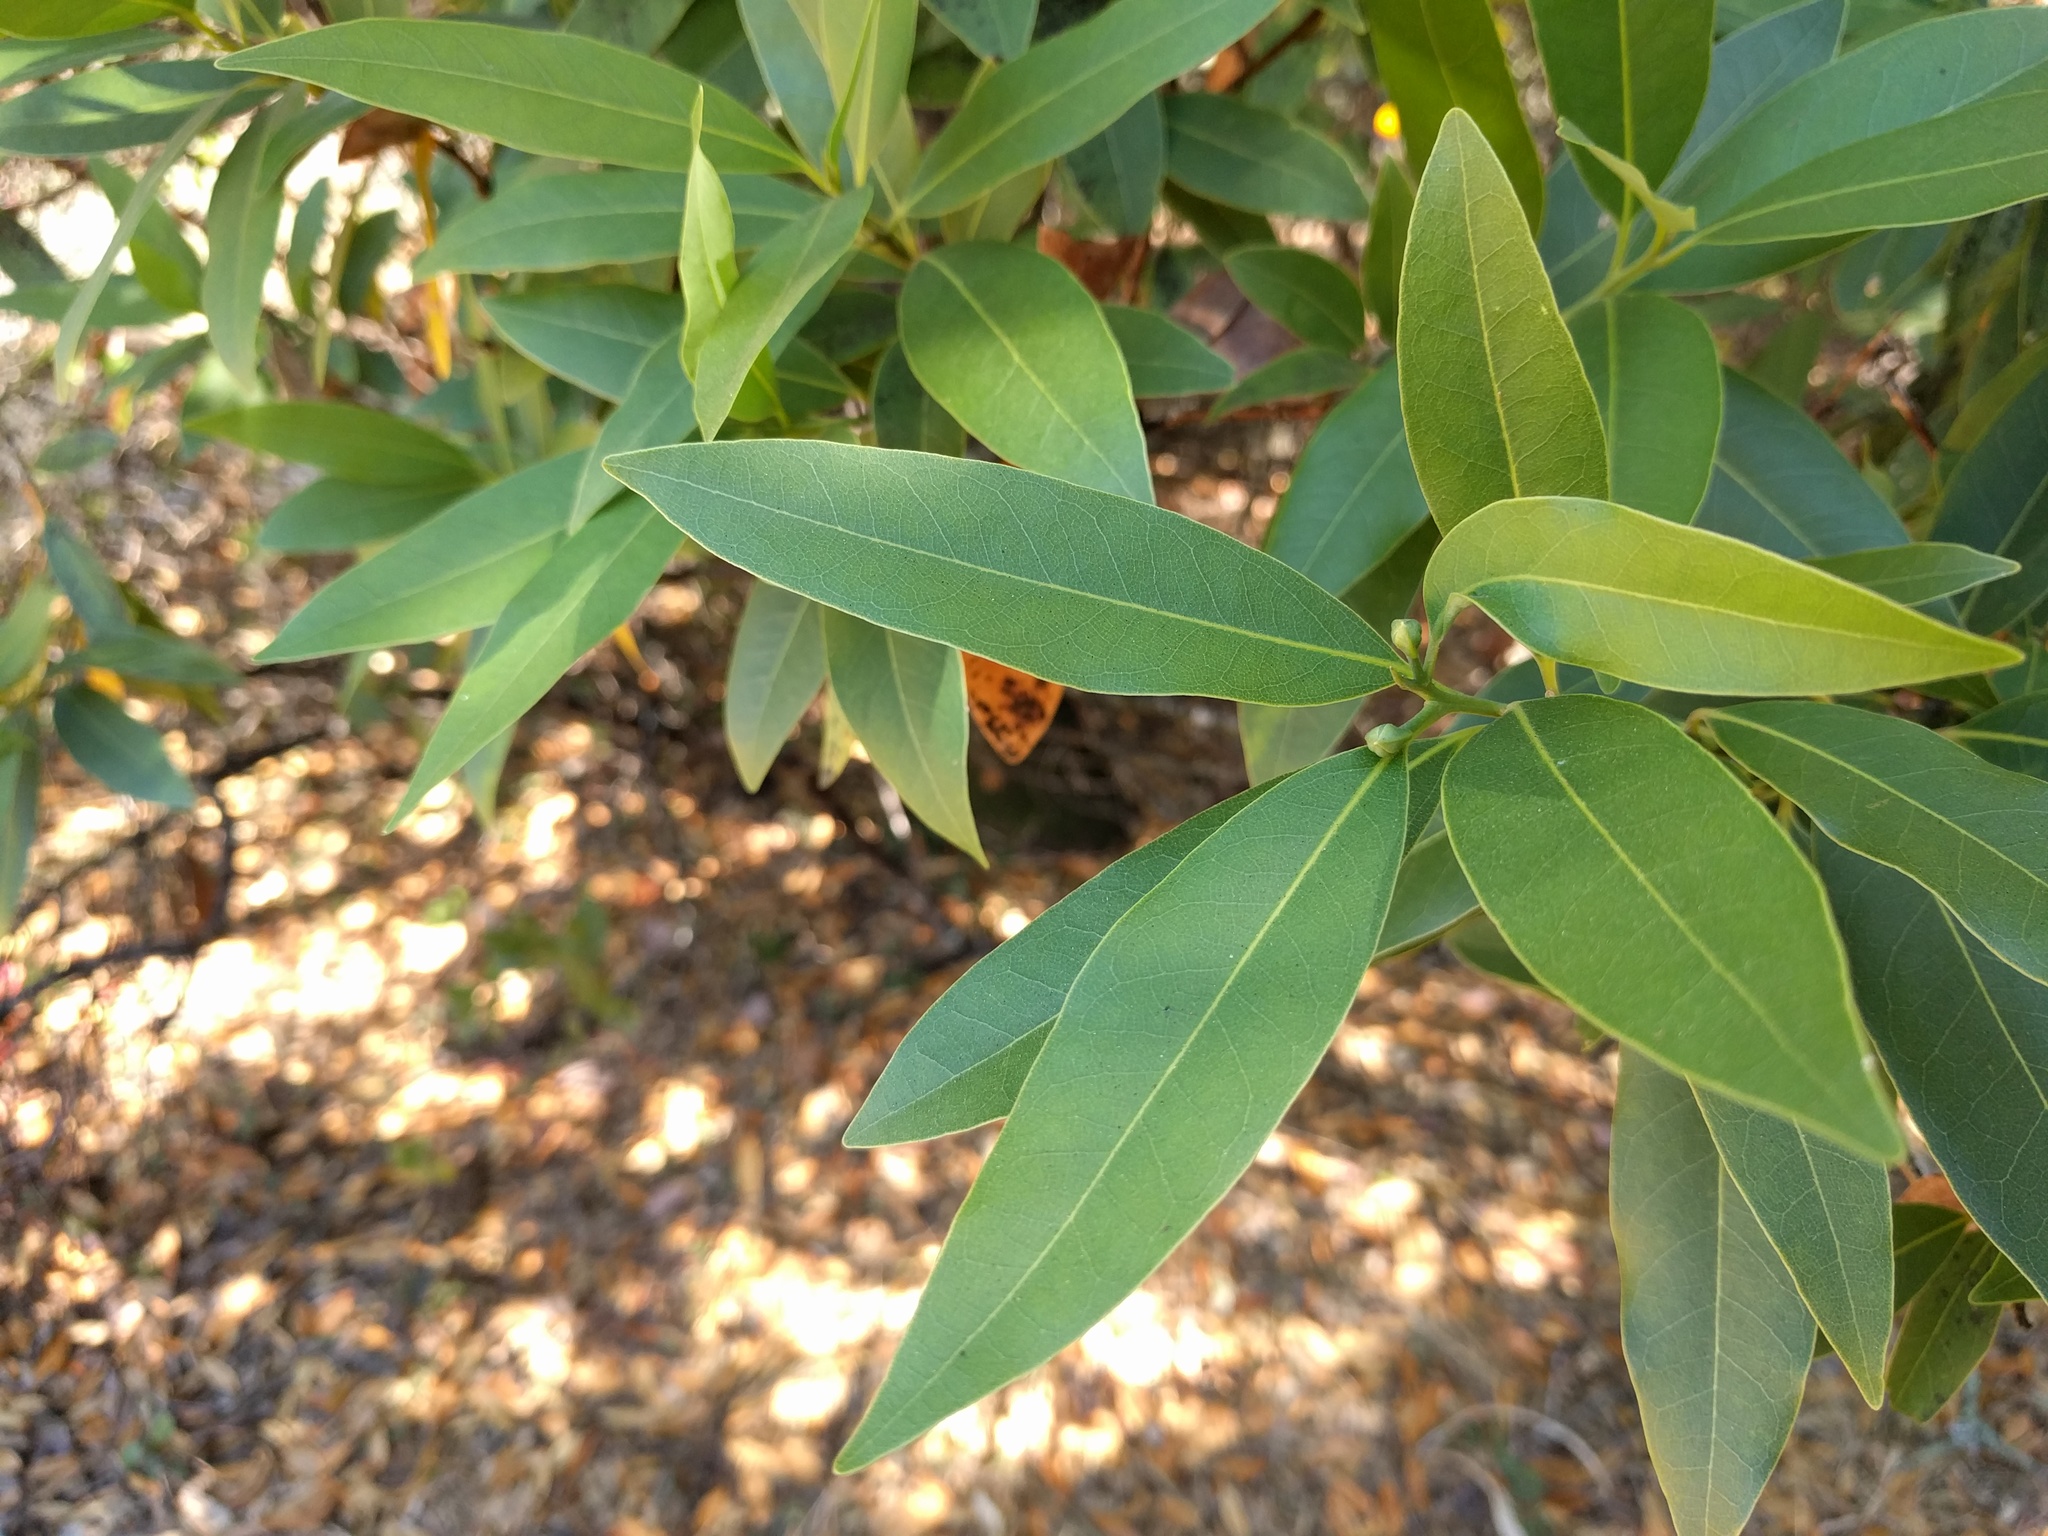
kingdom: Plantae
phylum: Tracheophyta
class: Magnoliopsida
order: Laurales
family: Lauraceae
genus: Umbellularia
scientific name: Umbellularia californica
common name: California bay
